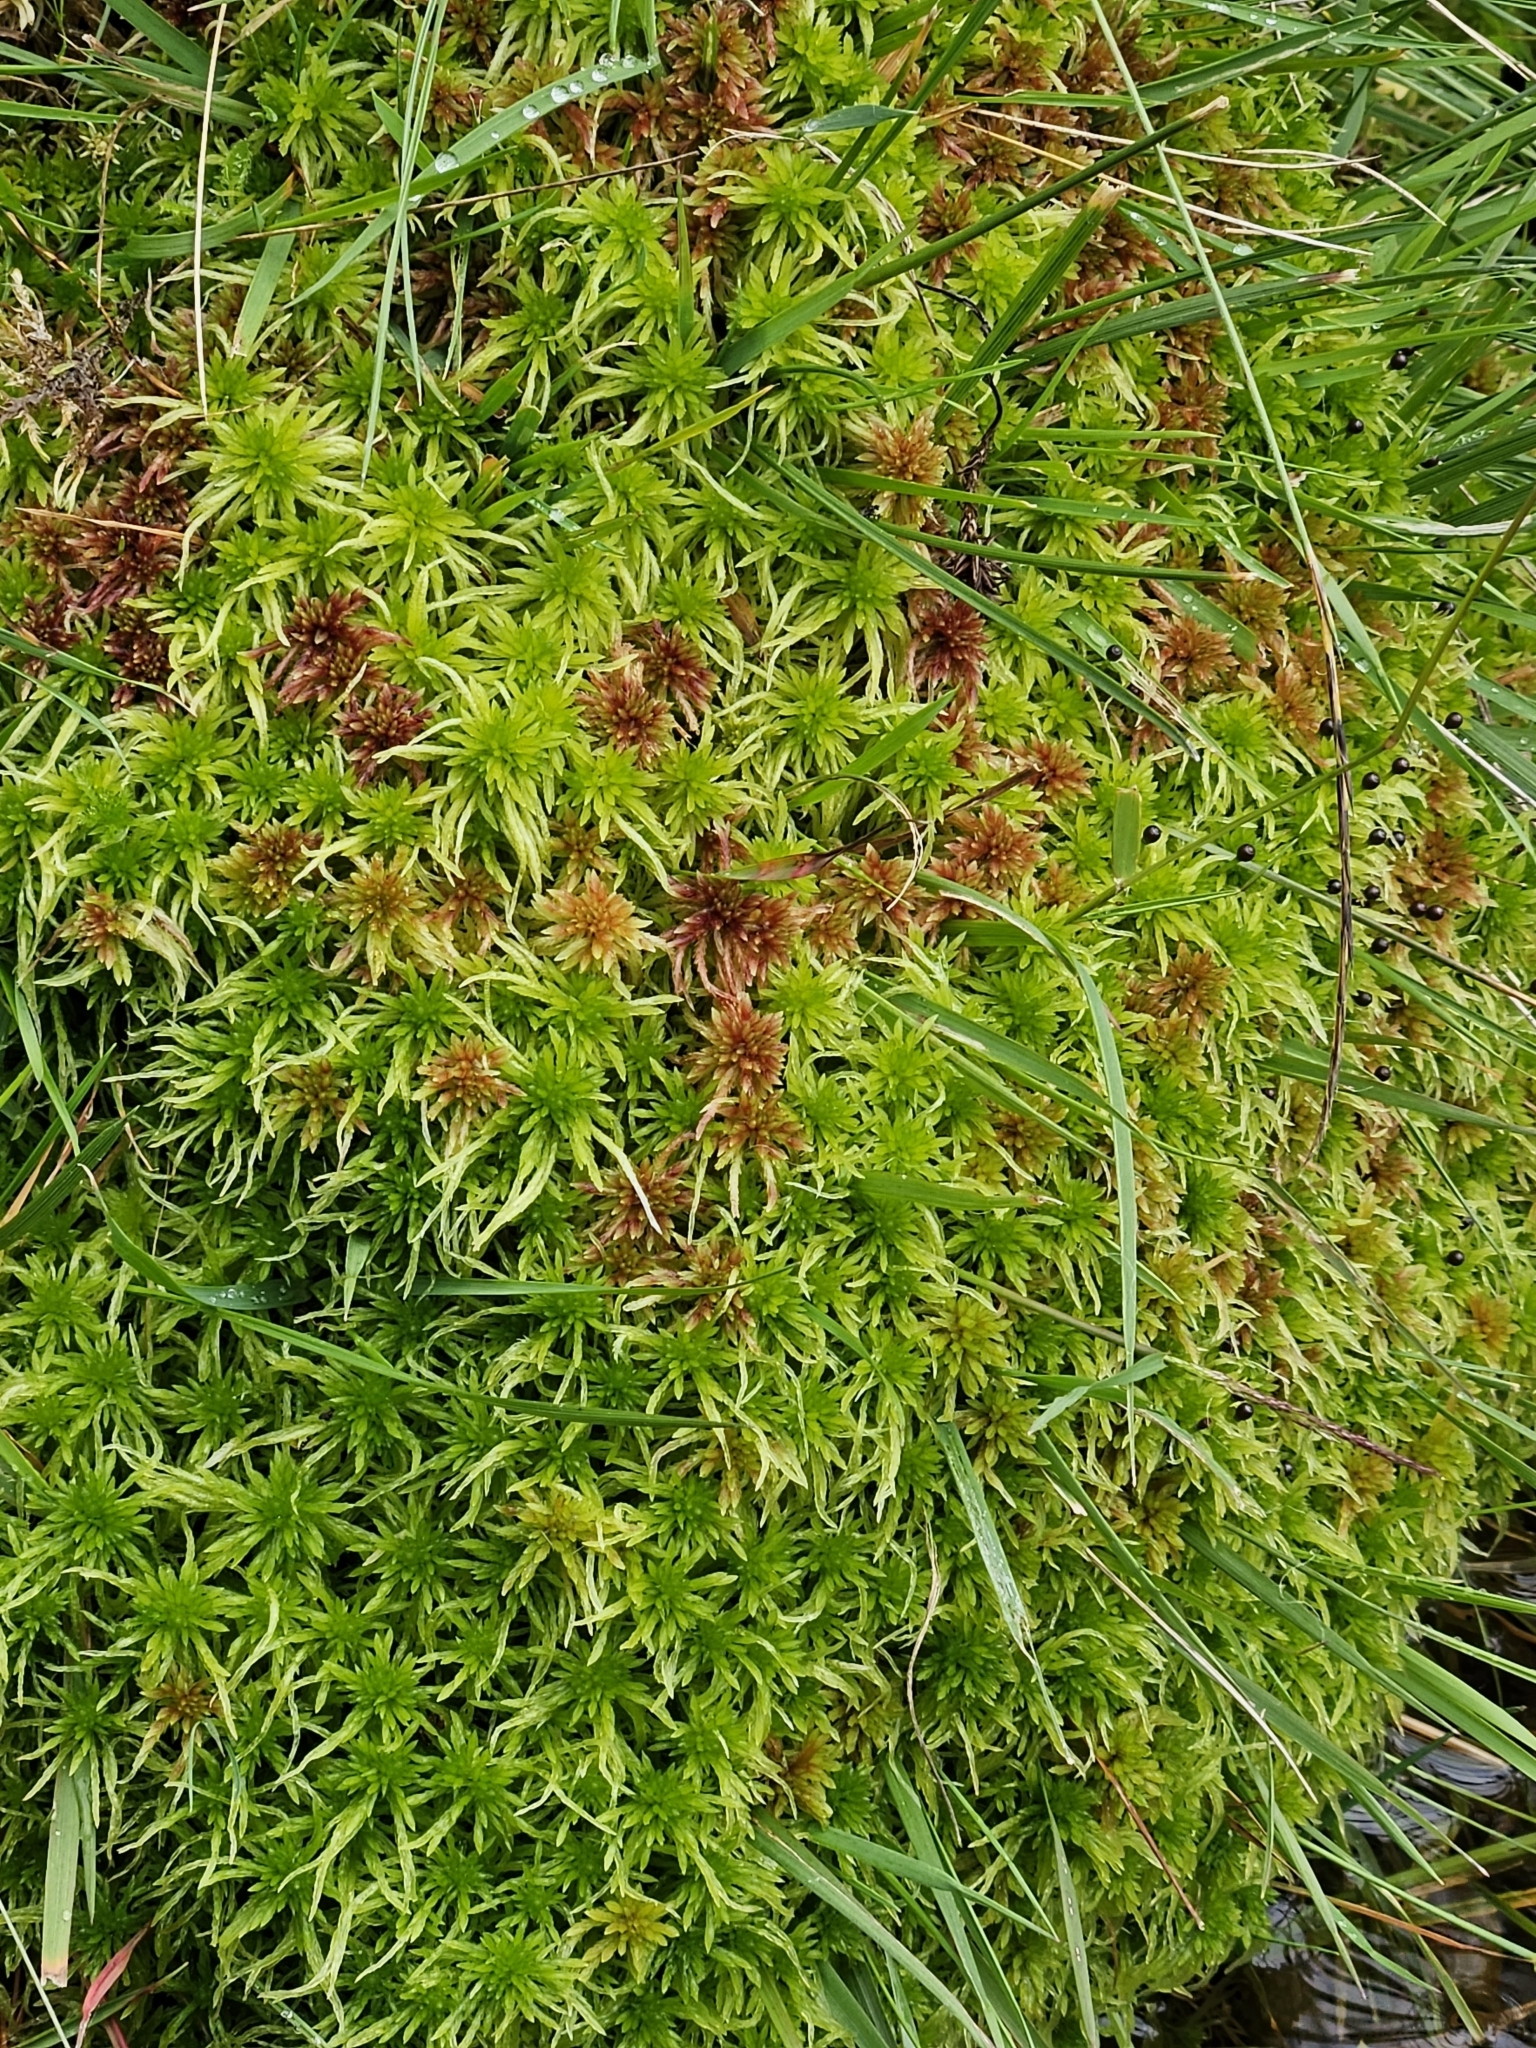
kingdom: Plantae
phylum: Bryophyta
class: Sphagnopsida
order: Sphagnales
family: Sphagnaceae
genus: Sphagnum
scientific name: Sphagnum fimbriatum
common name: Fringed peat moss
